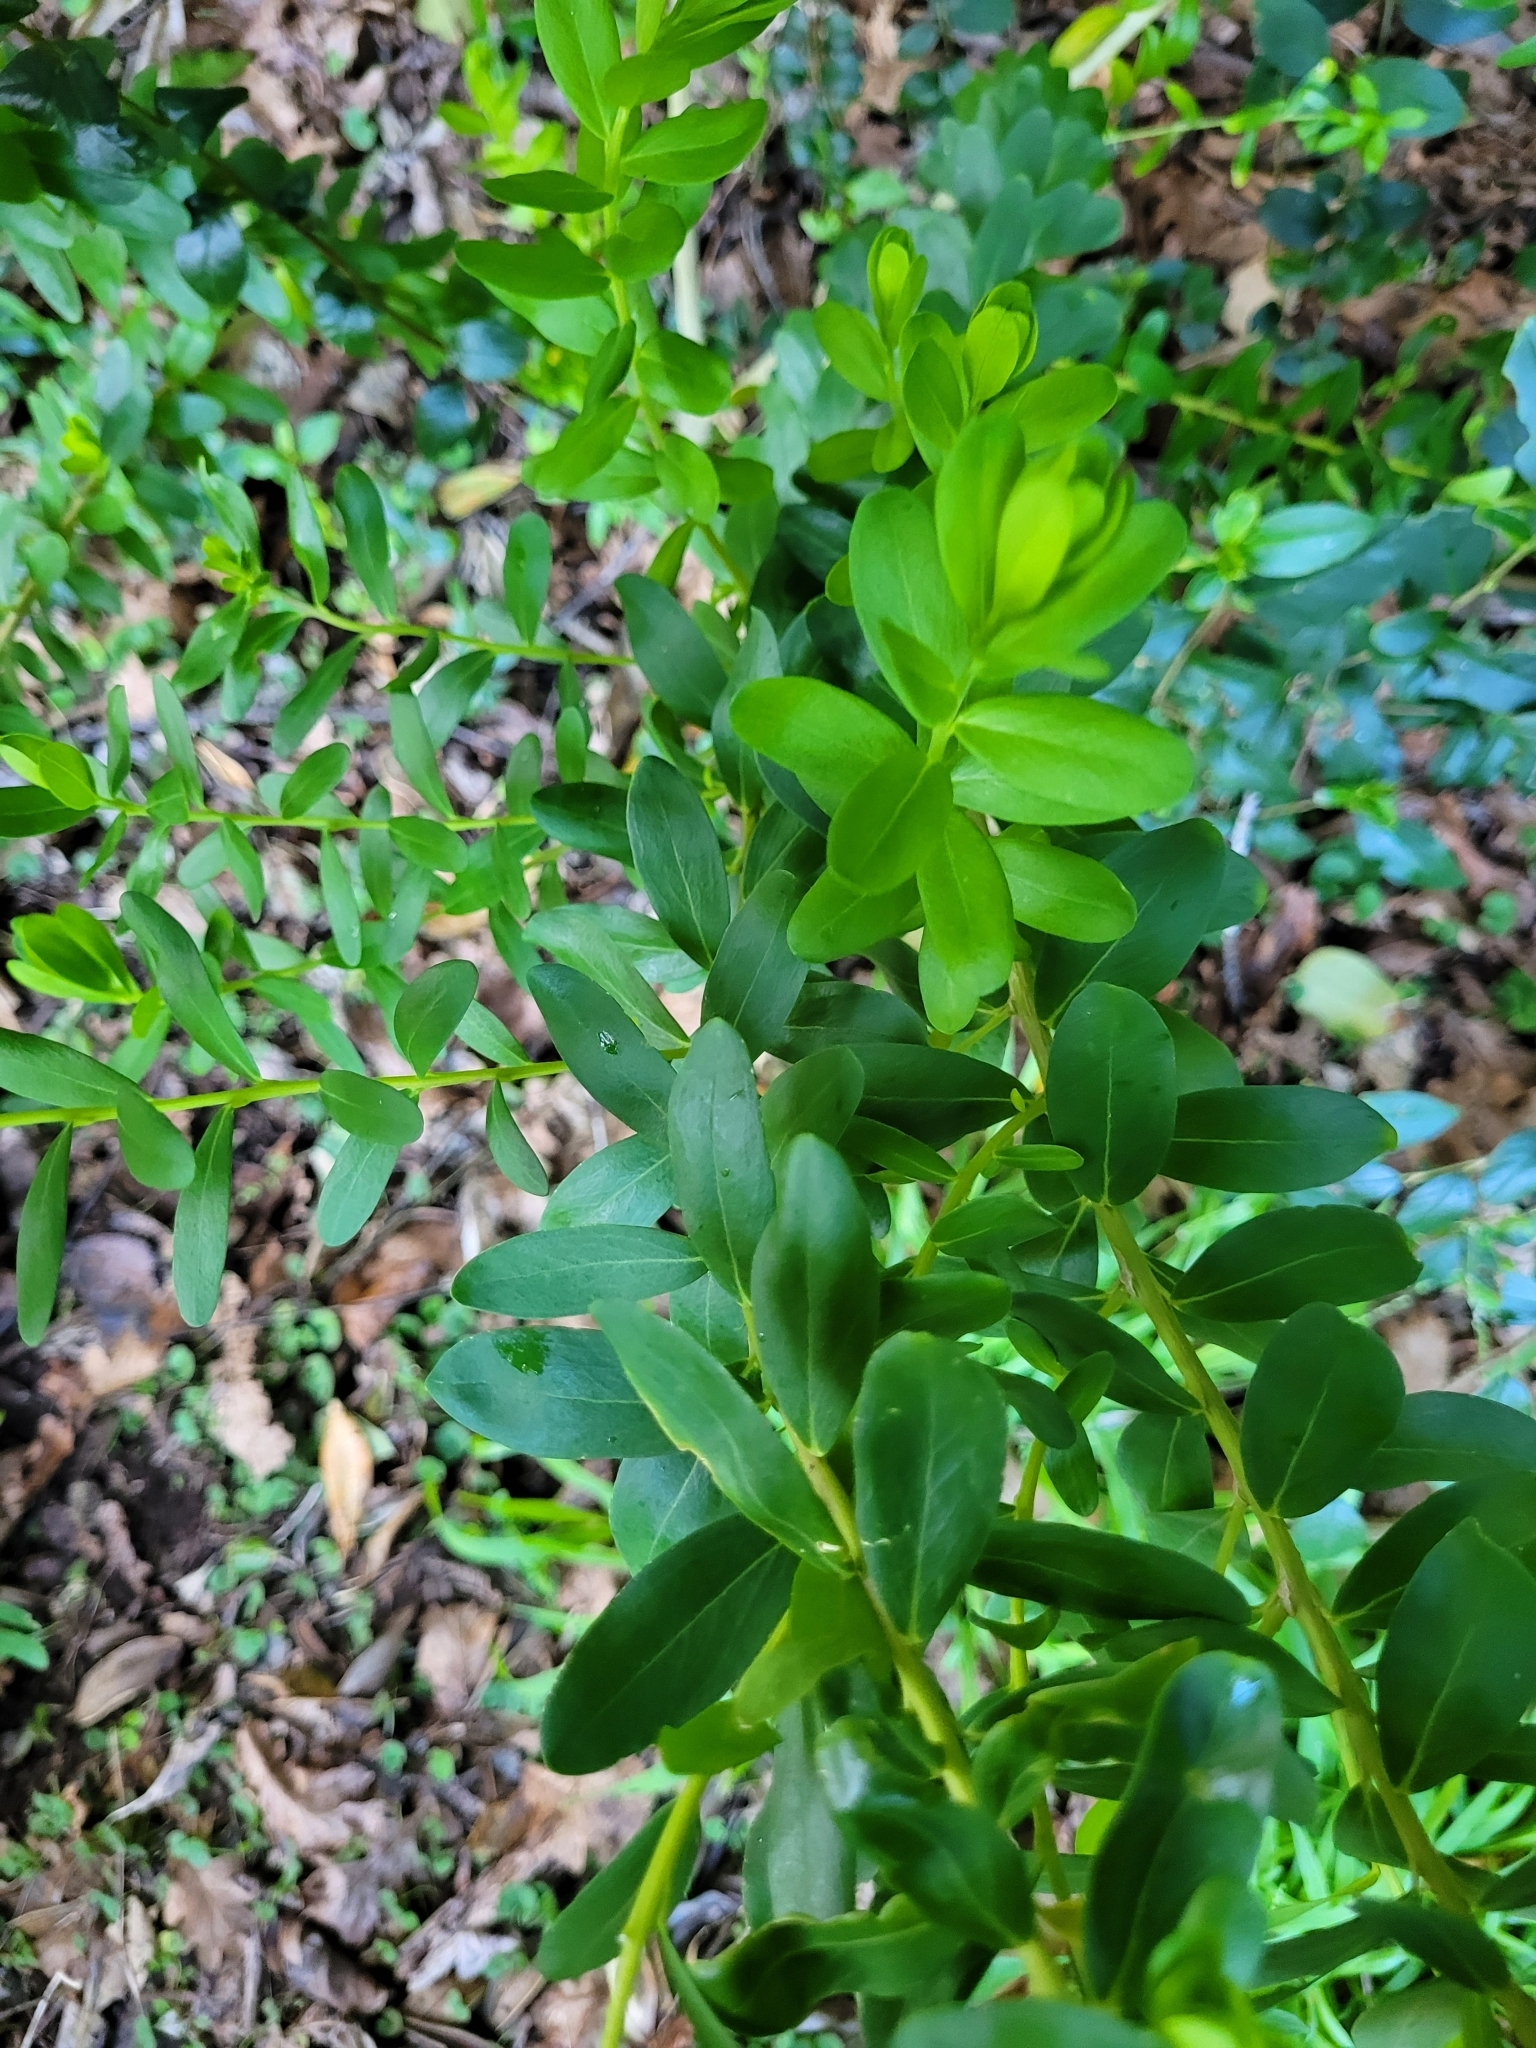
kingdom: Plantae
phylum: Tracheophyta
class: Magnoliopsida
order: Fabales
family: Polygalaceae
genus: Polygala
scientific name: Polygala myrtifolia
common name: Myrtle-leaf milkwort
